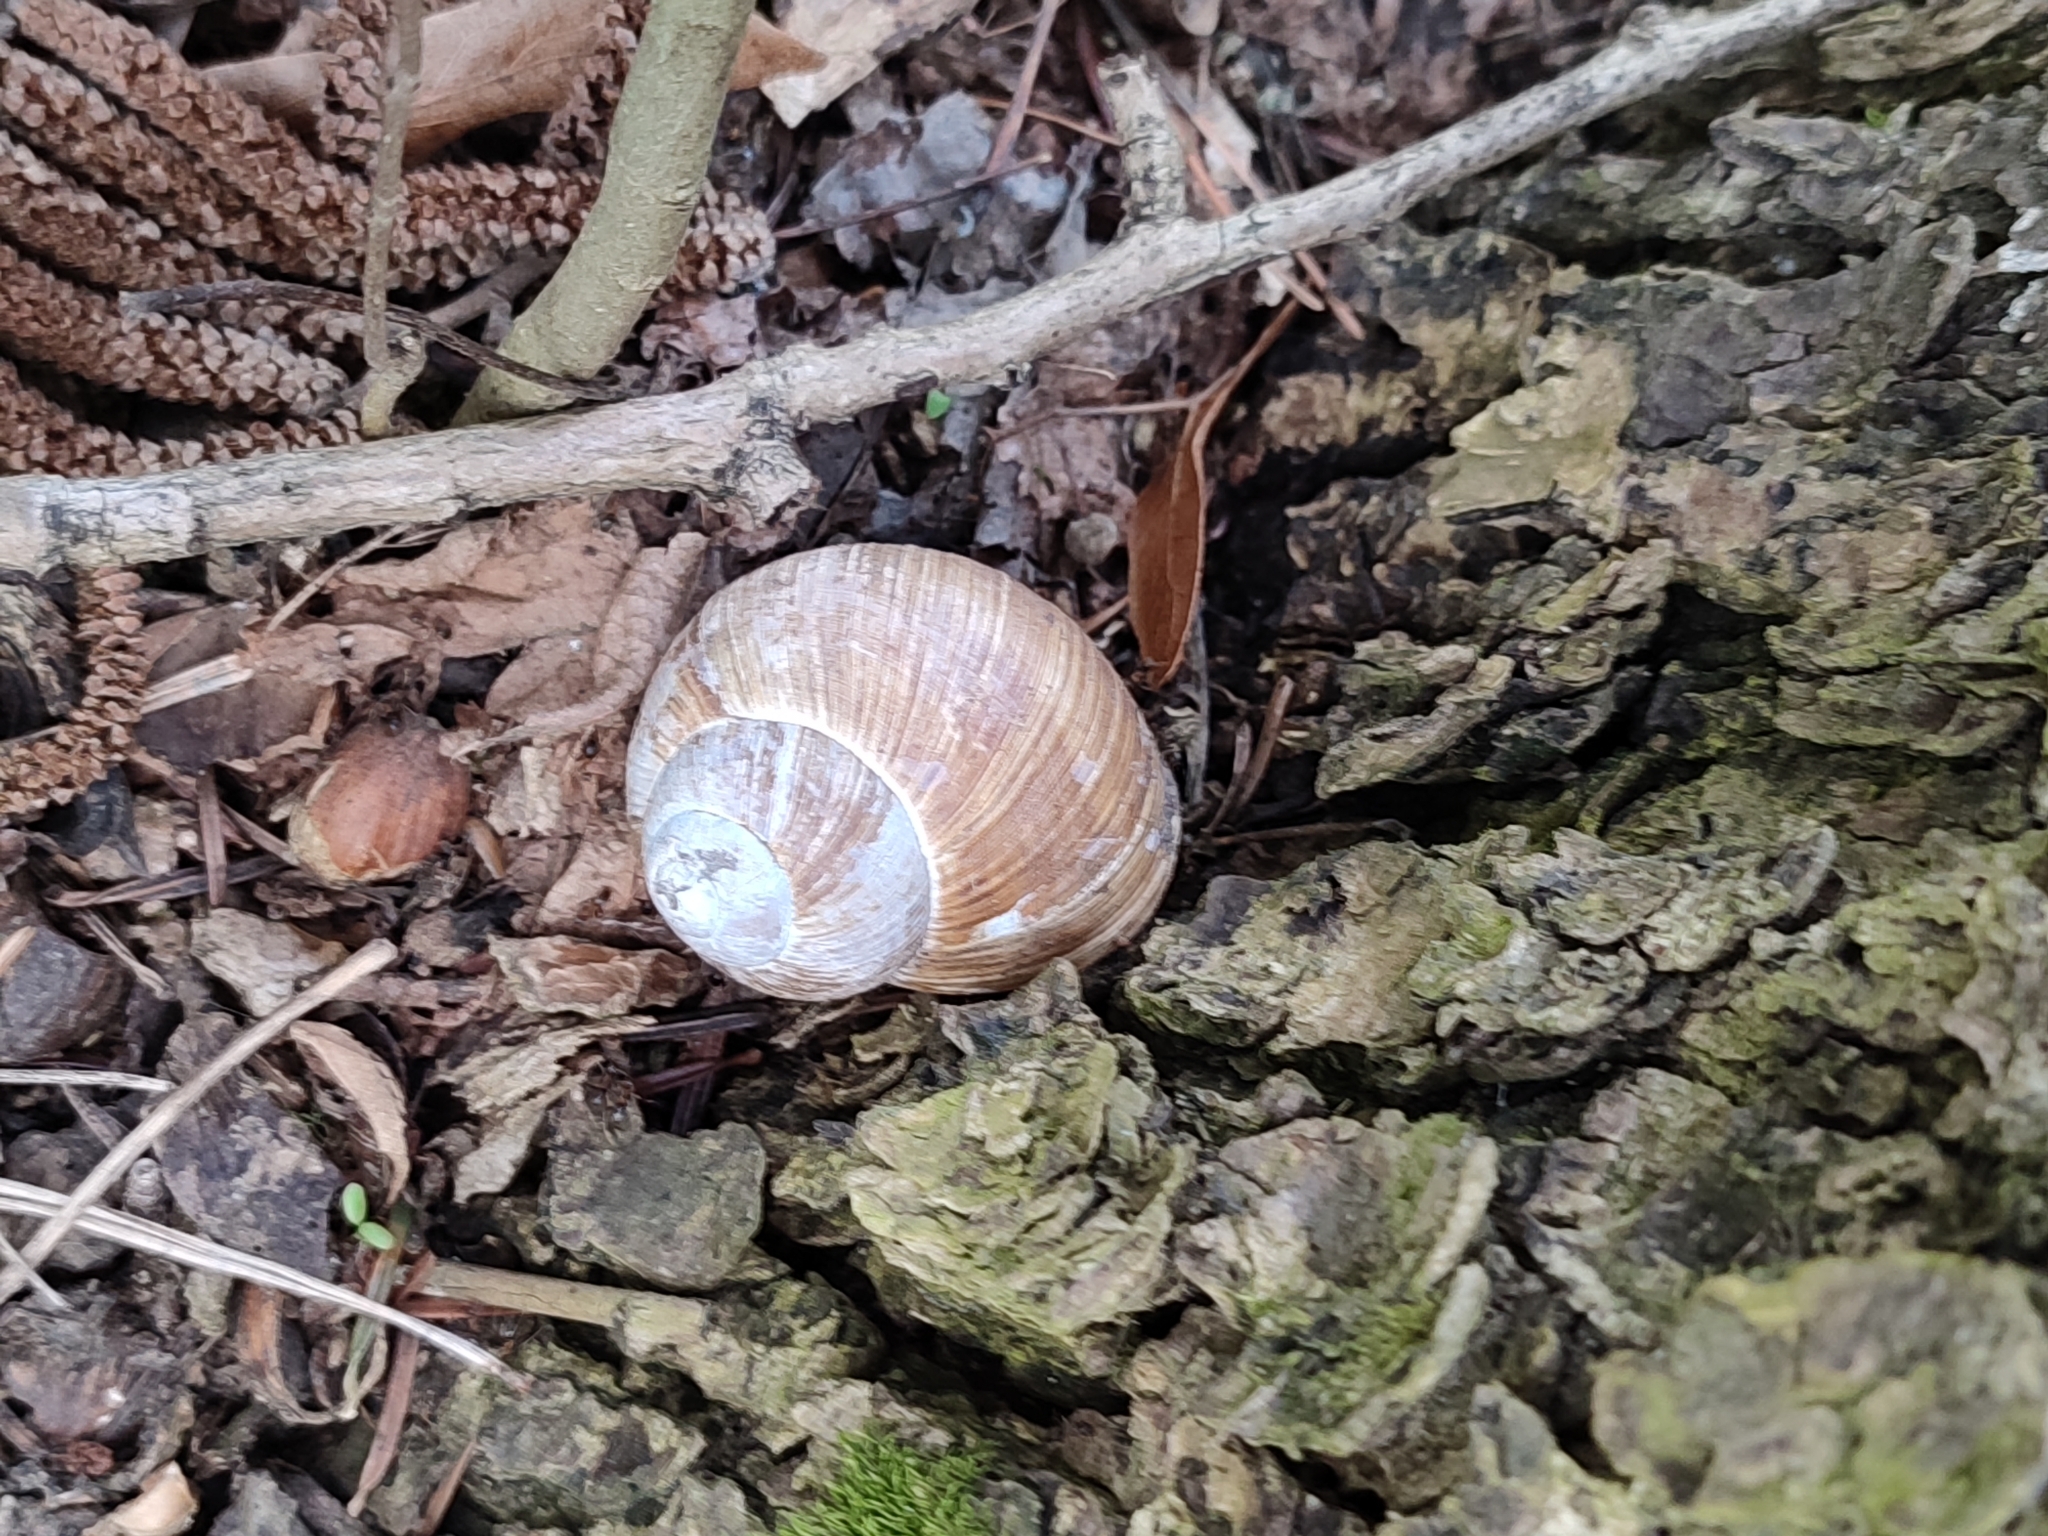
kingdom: Animalia
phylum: Mollusca
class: Gastropoda
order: Stylommatophora
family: Helicidae
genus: Helix
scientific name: Helix pomatia
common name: Roman snail
